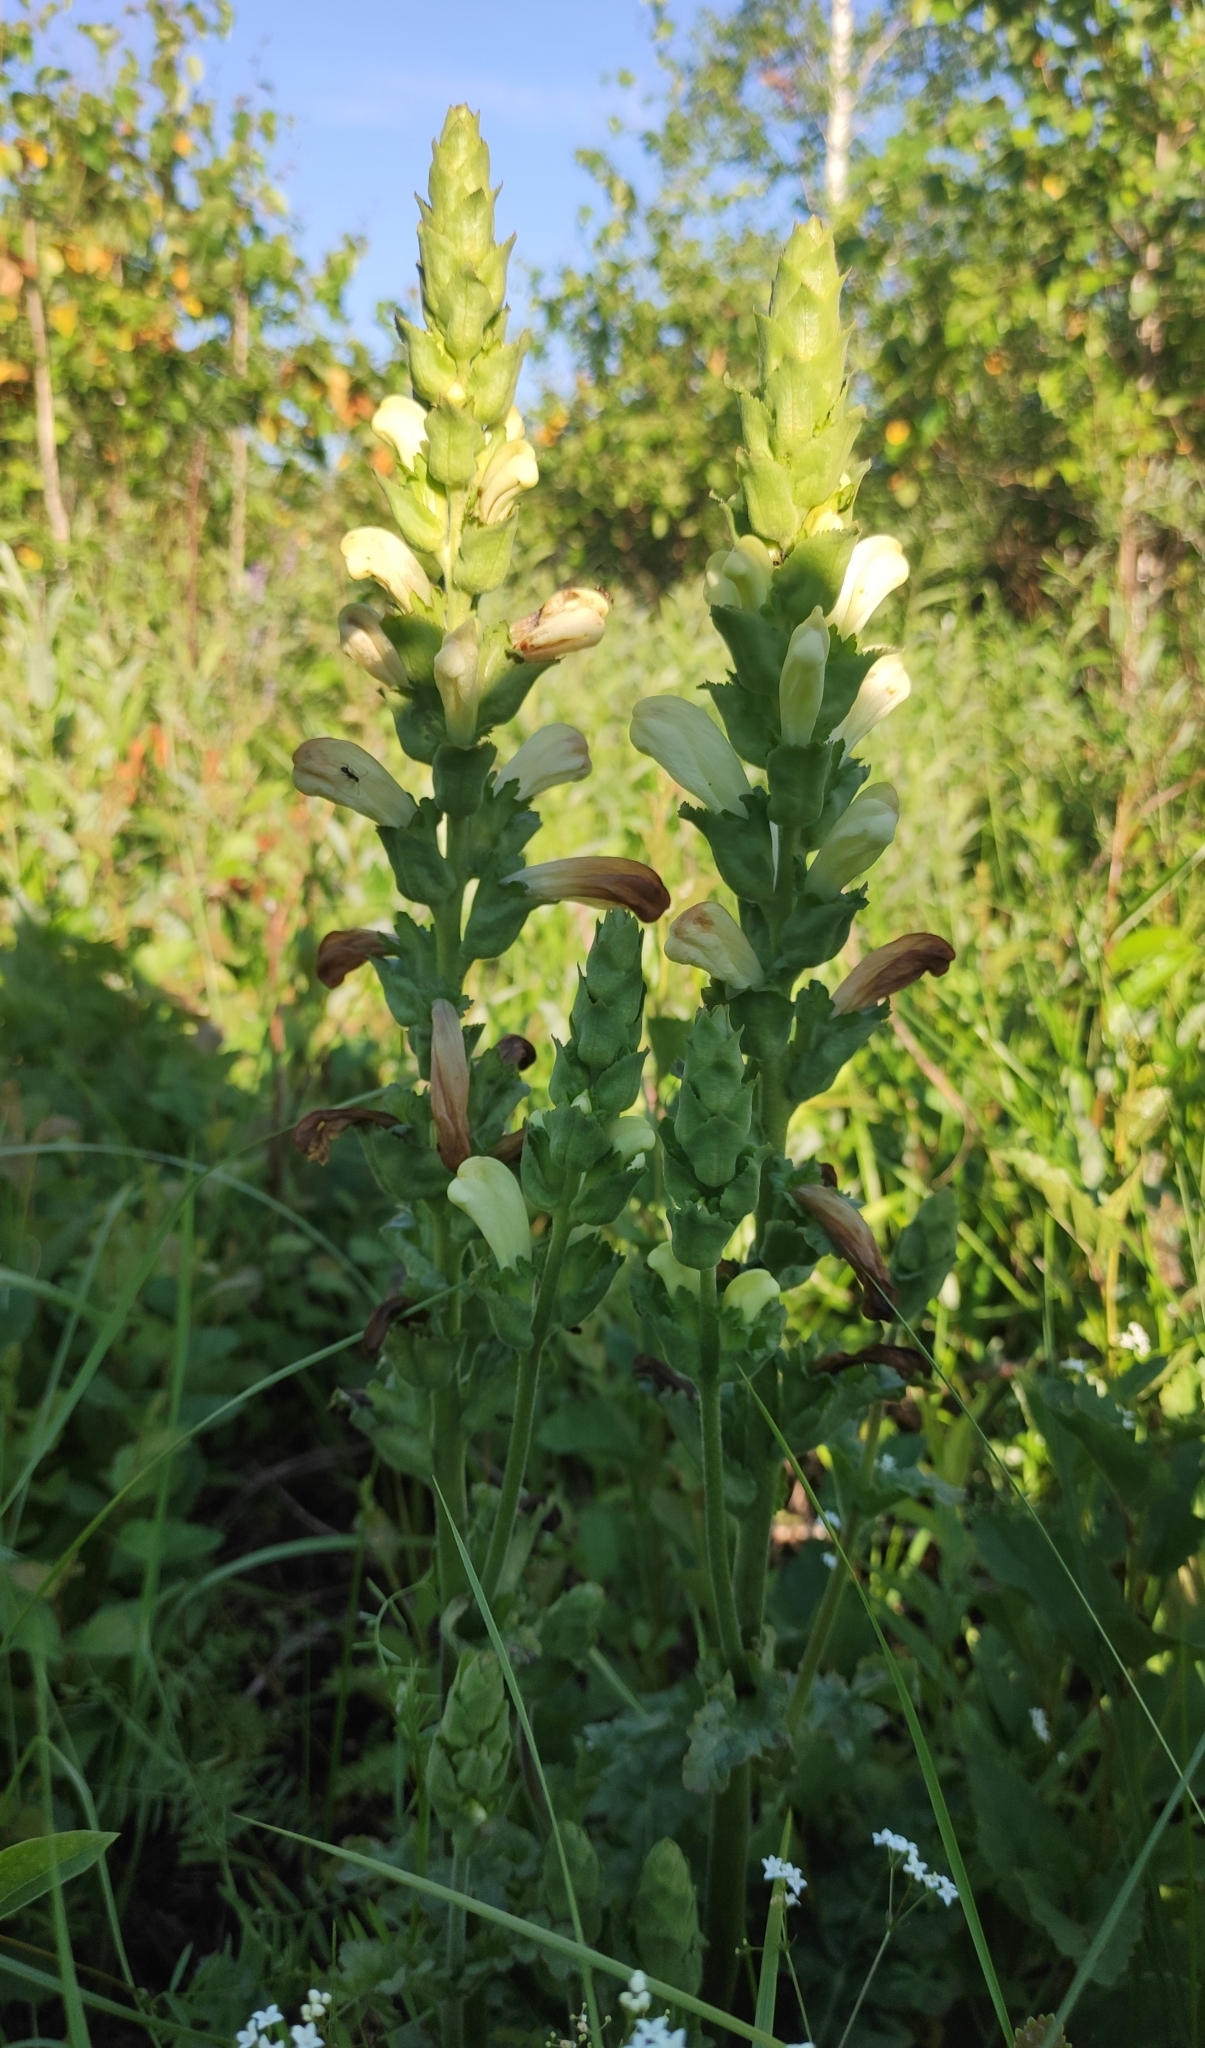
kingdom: Plantae
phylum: Tracheophyta
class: Magnoliopsida
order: Lamiales
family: Orobanchaceae
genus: Pedicularis
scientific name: Pedicularis sceptrum-carolinum
